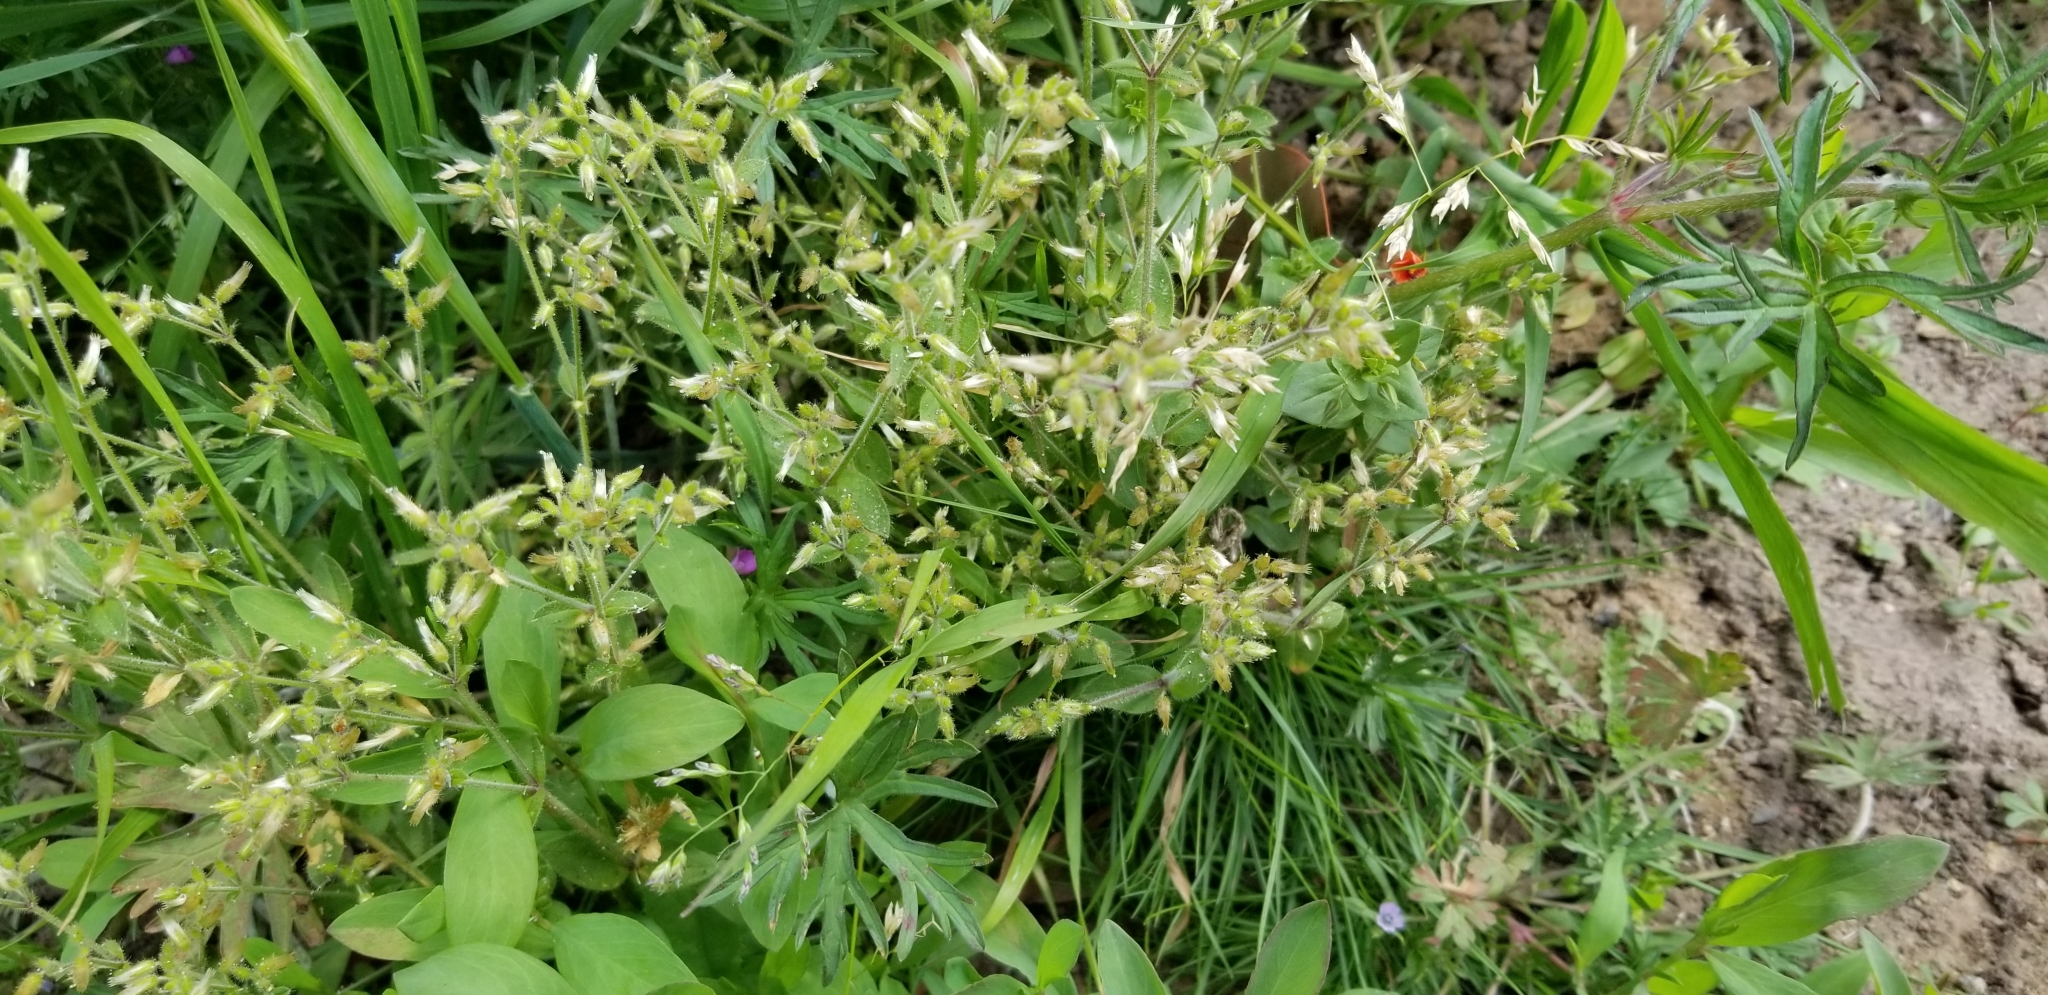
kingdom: Plantae
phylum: Tracheophyta
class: Magnoliopsida
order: Caryophyllales
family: Caryophyllaceae
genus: Cerastium
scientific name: Cerastium glomeratum
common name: Sticky chickweed
